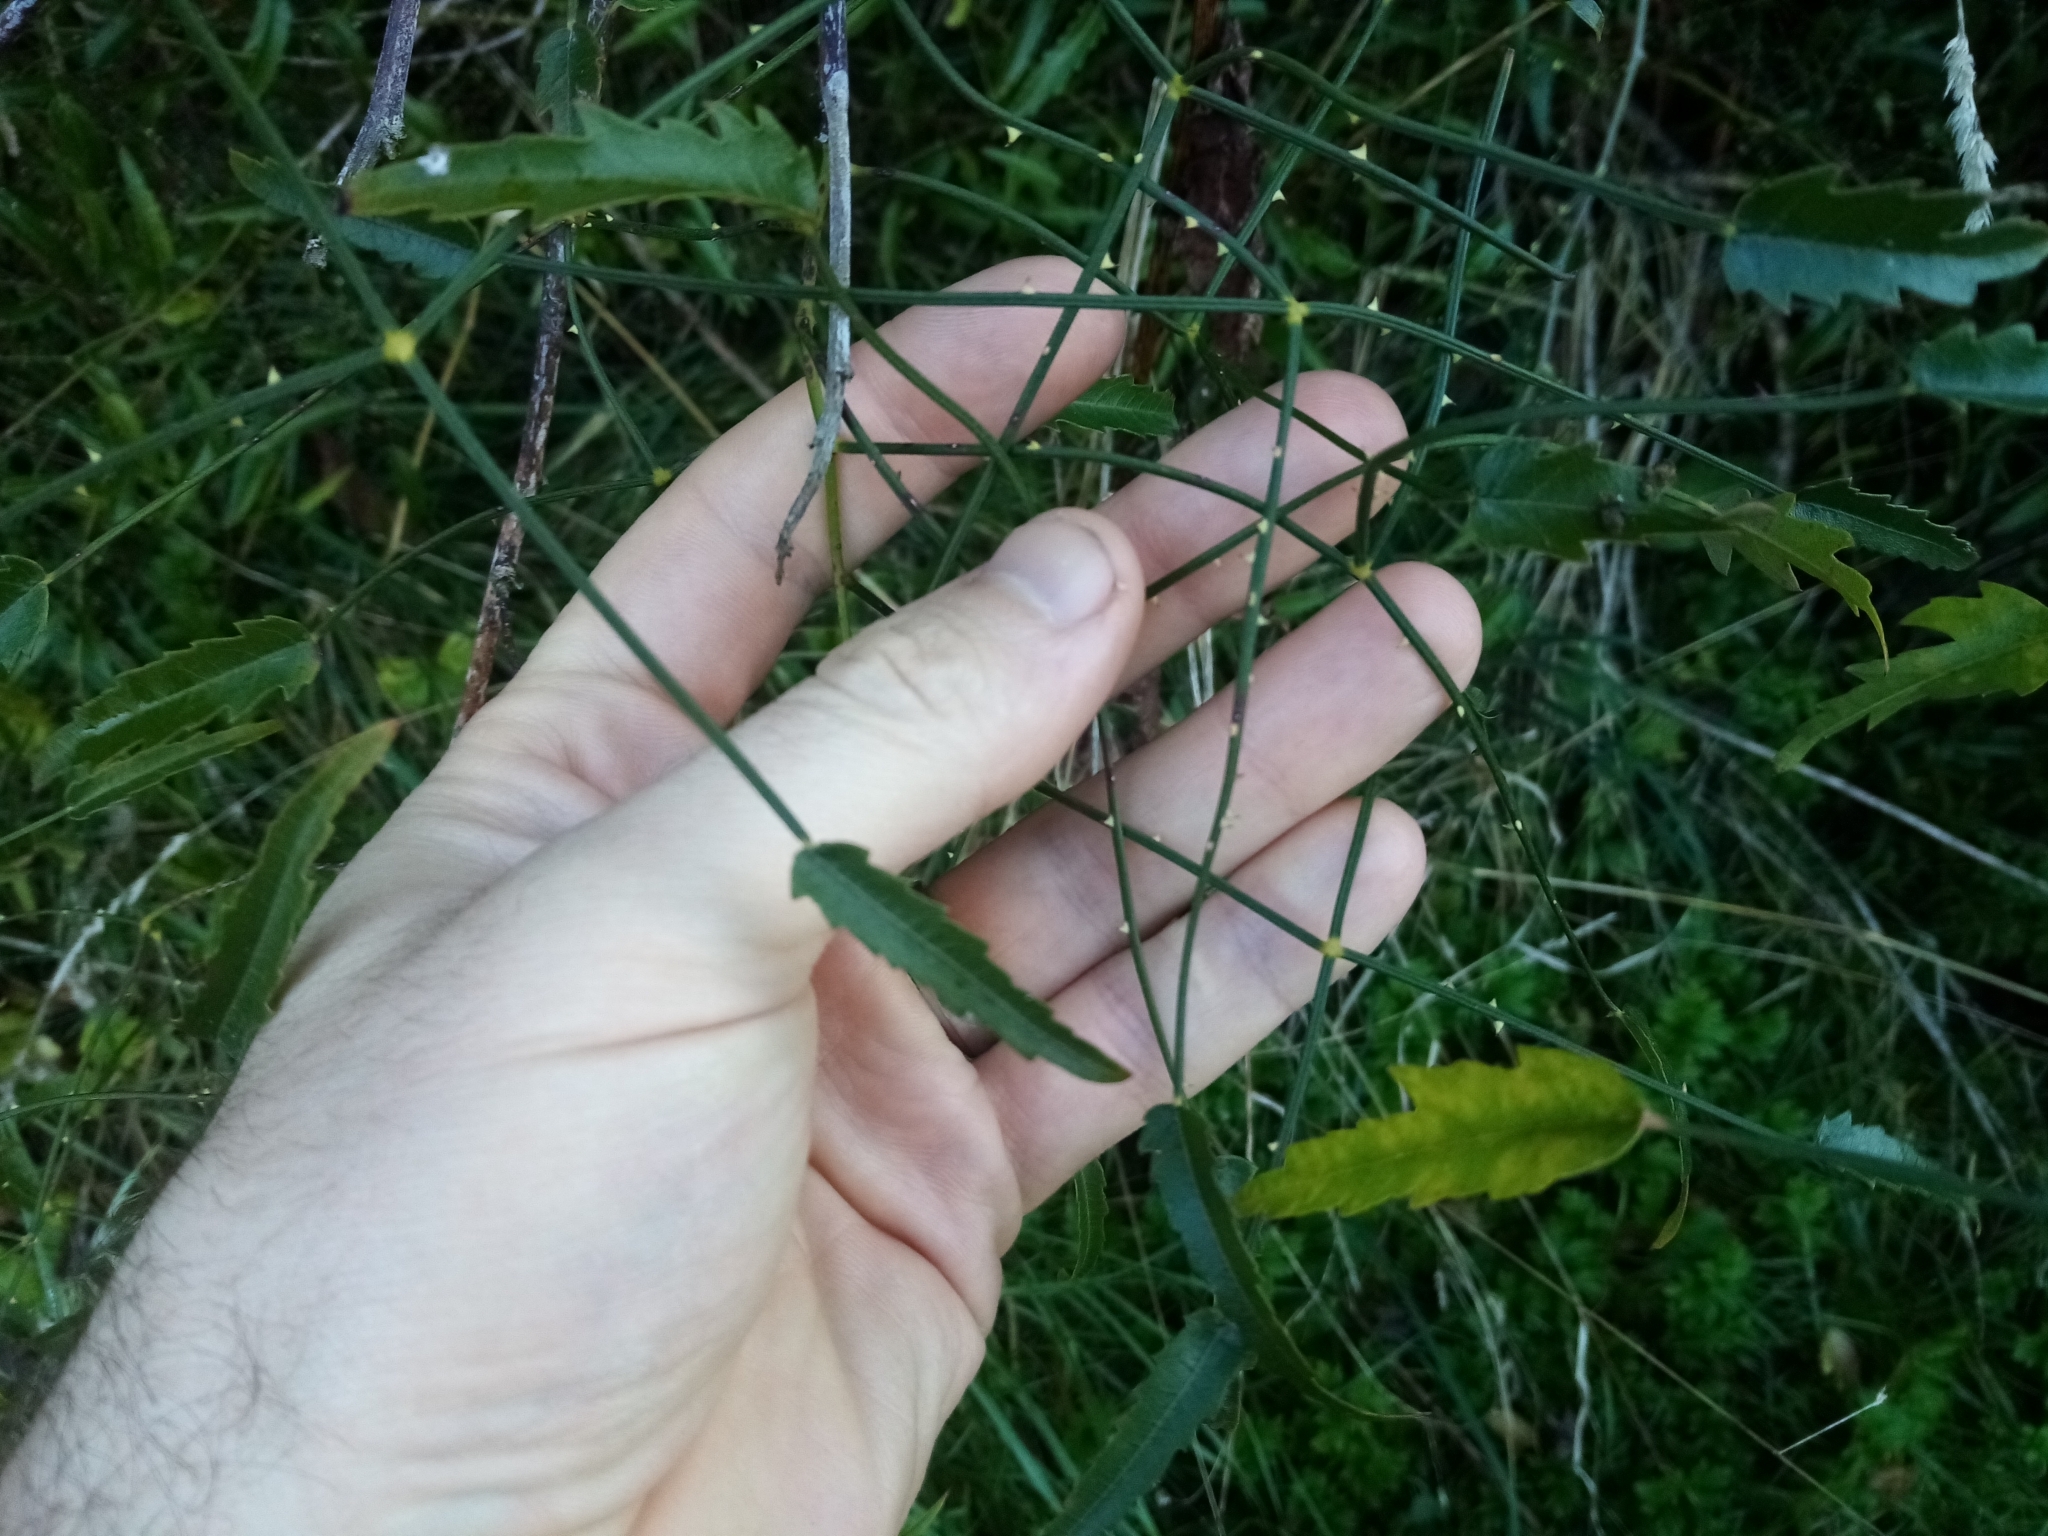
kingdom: Plantae
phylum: Tracheophyta
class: Magnoliopsida
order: Rosales
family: Rosaceae
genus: Rubus
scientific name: Rubus squarrosus
